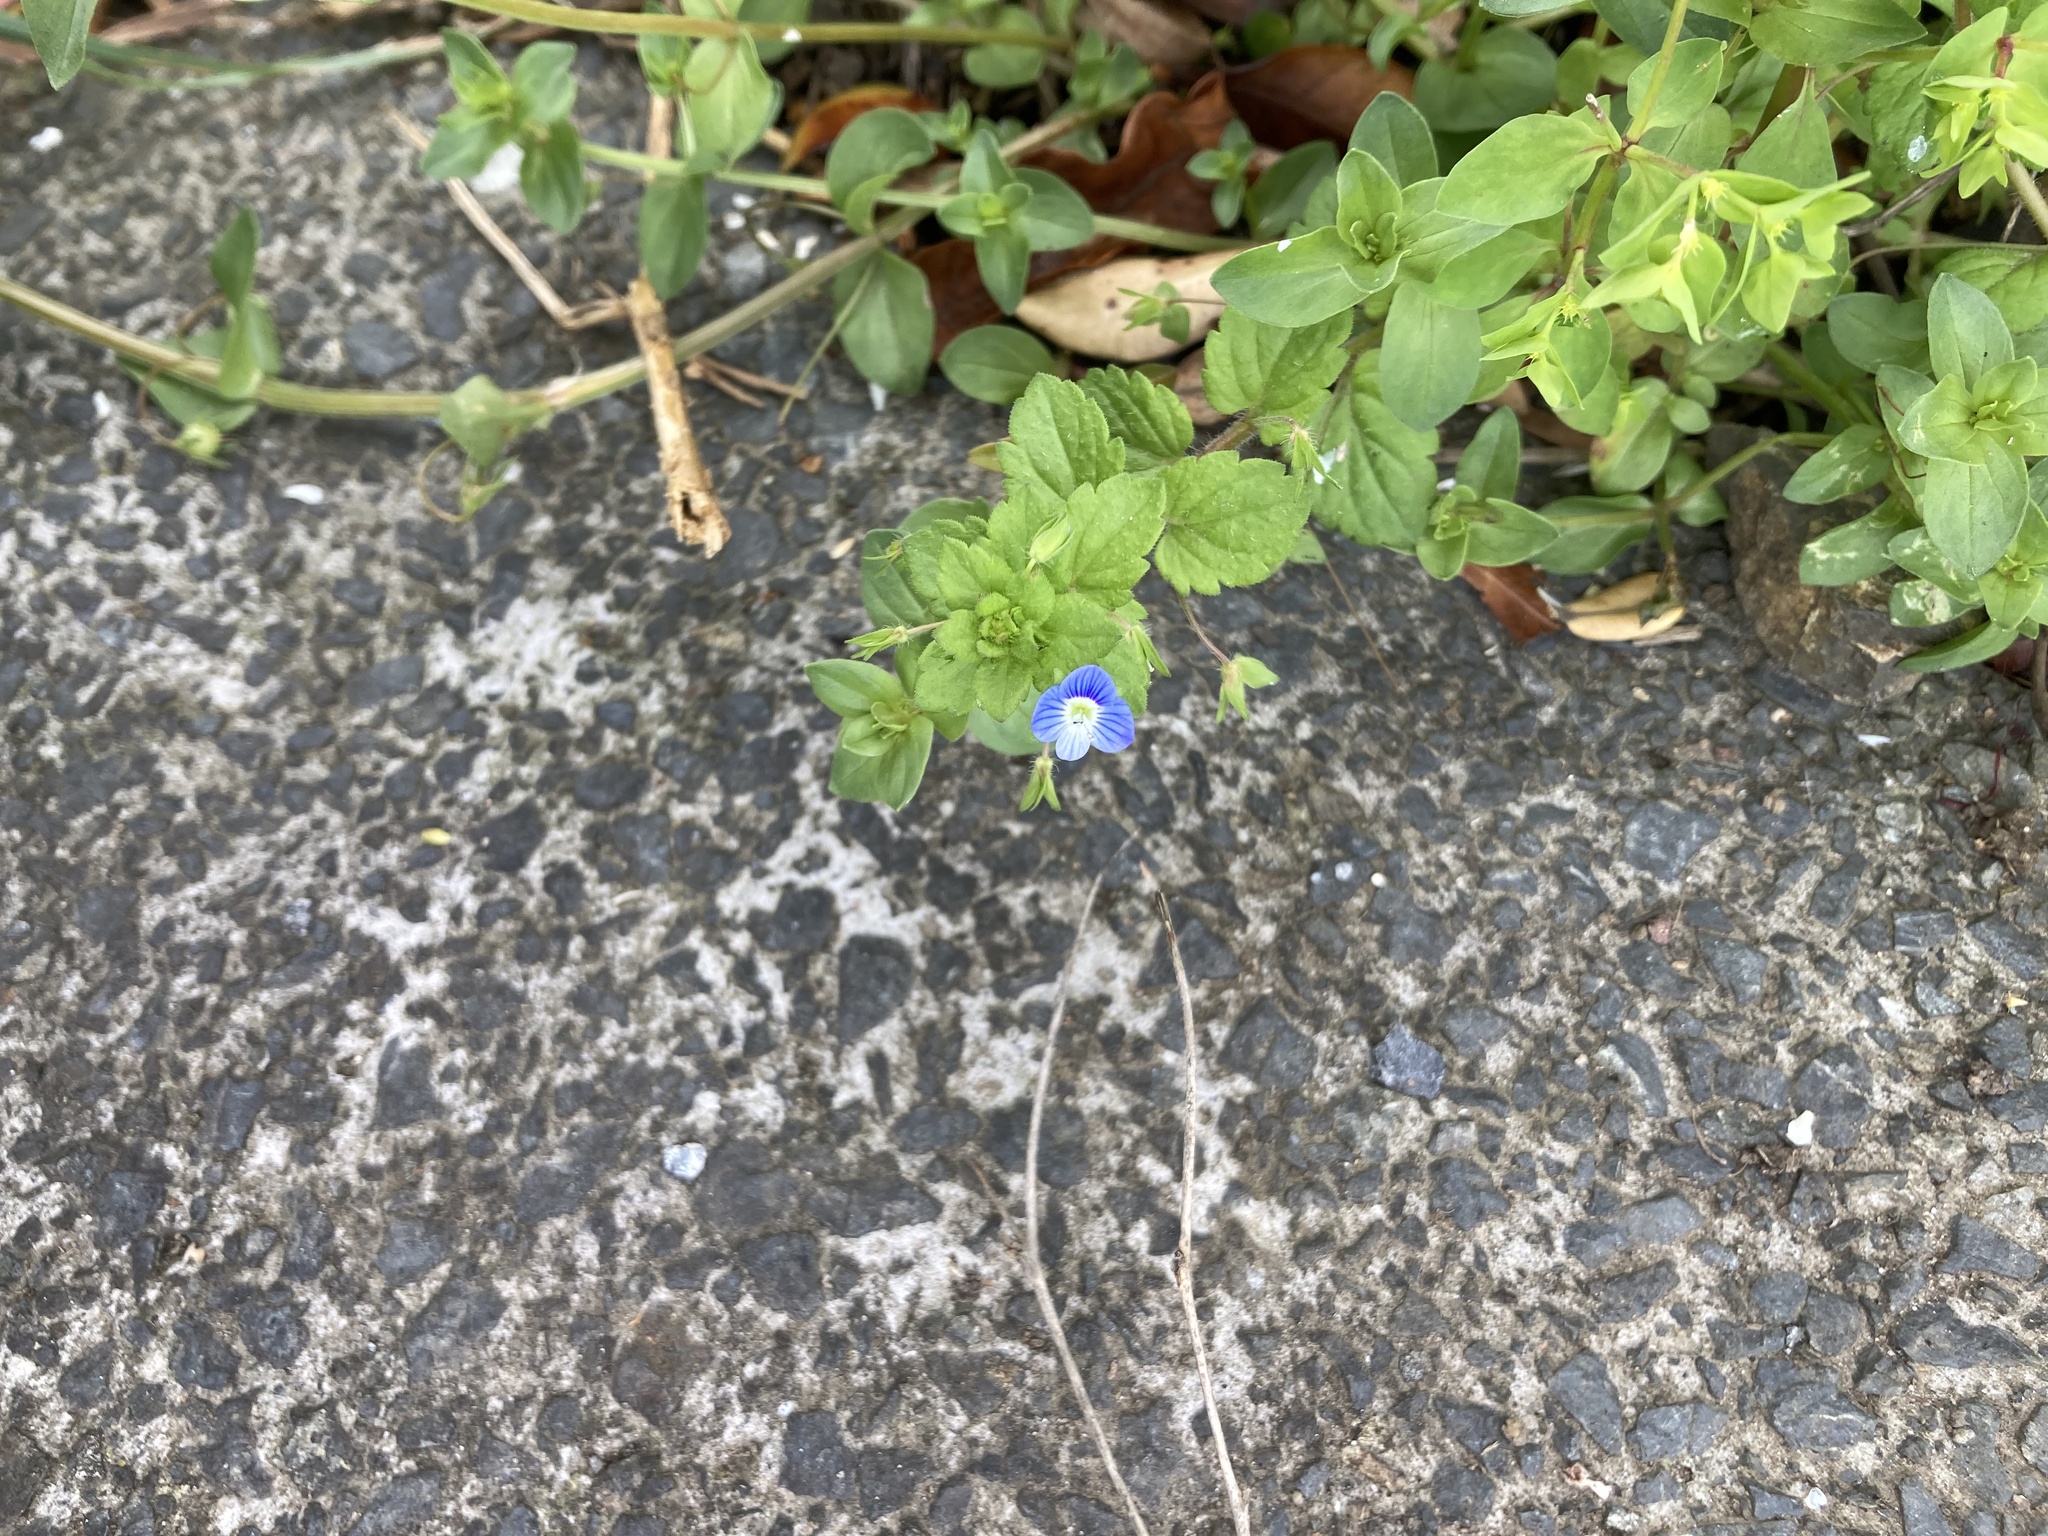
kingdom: Plantae
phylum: Tracheophyta
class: Magnoliopsida
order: Lamiales
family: Plantaginaceae
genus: Veronica
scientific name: Veronica persica
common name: Common field-speedwell
